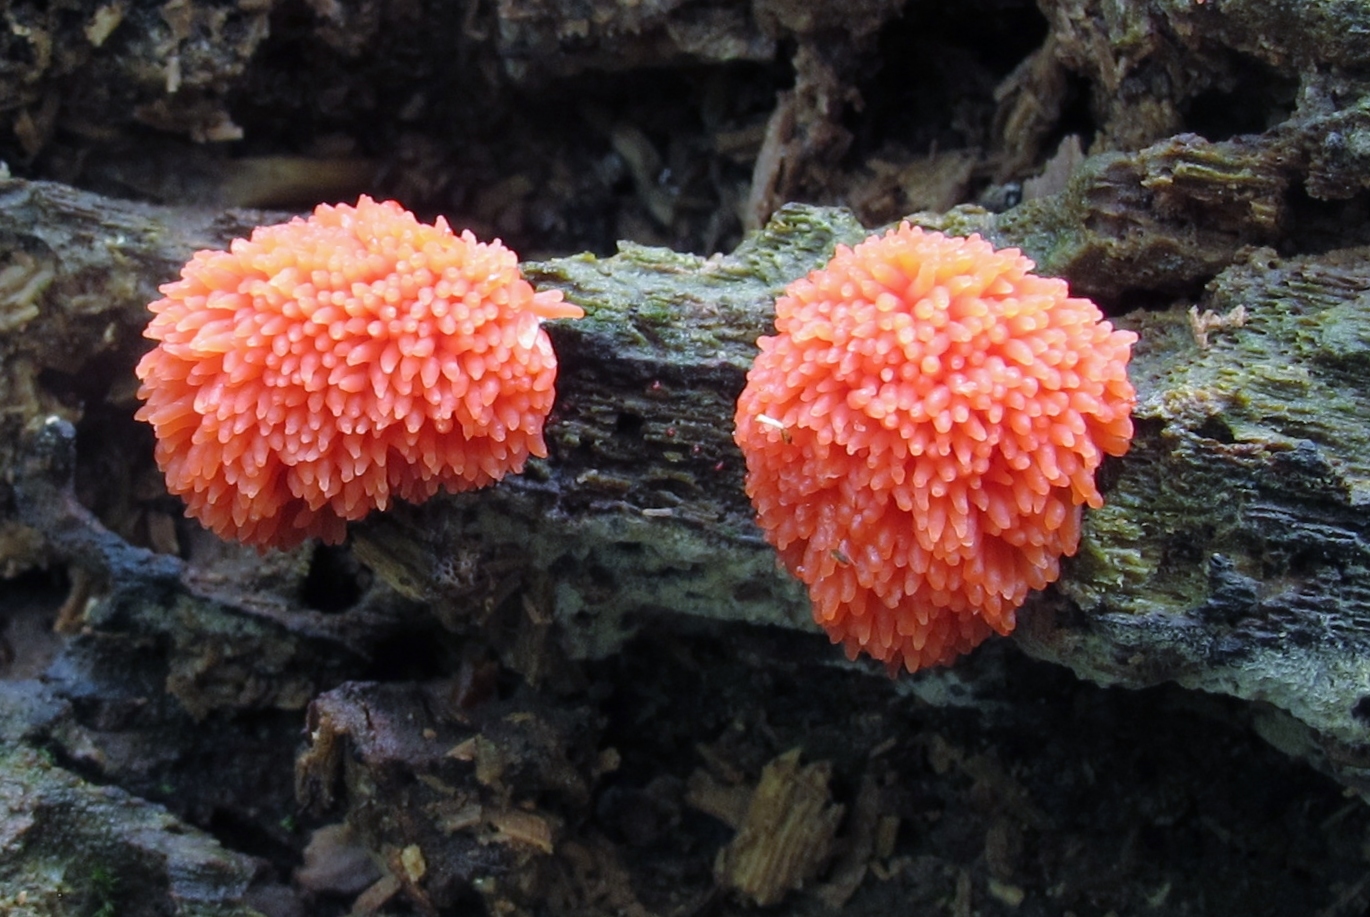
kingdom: Protozoa
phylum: Mycetozoa
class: Myxomycetes
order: Cribrariales
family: Tubiferaceae
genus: Tubifera
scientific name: Tubifera ferruginosa
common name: Red raspberry slime mold
